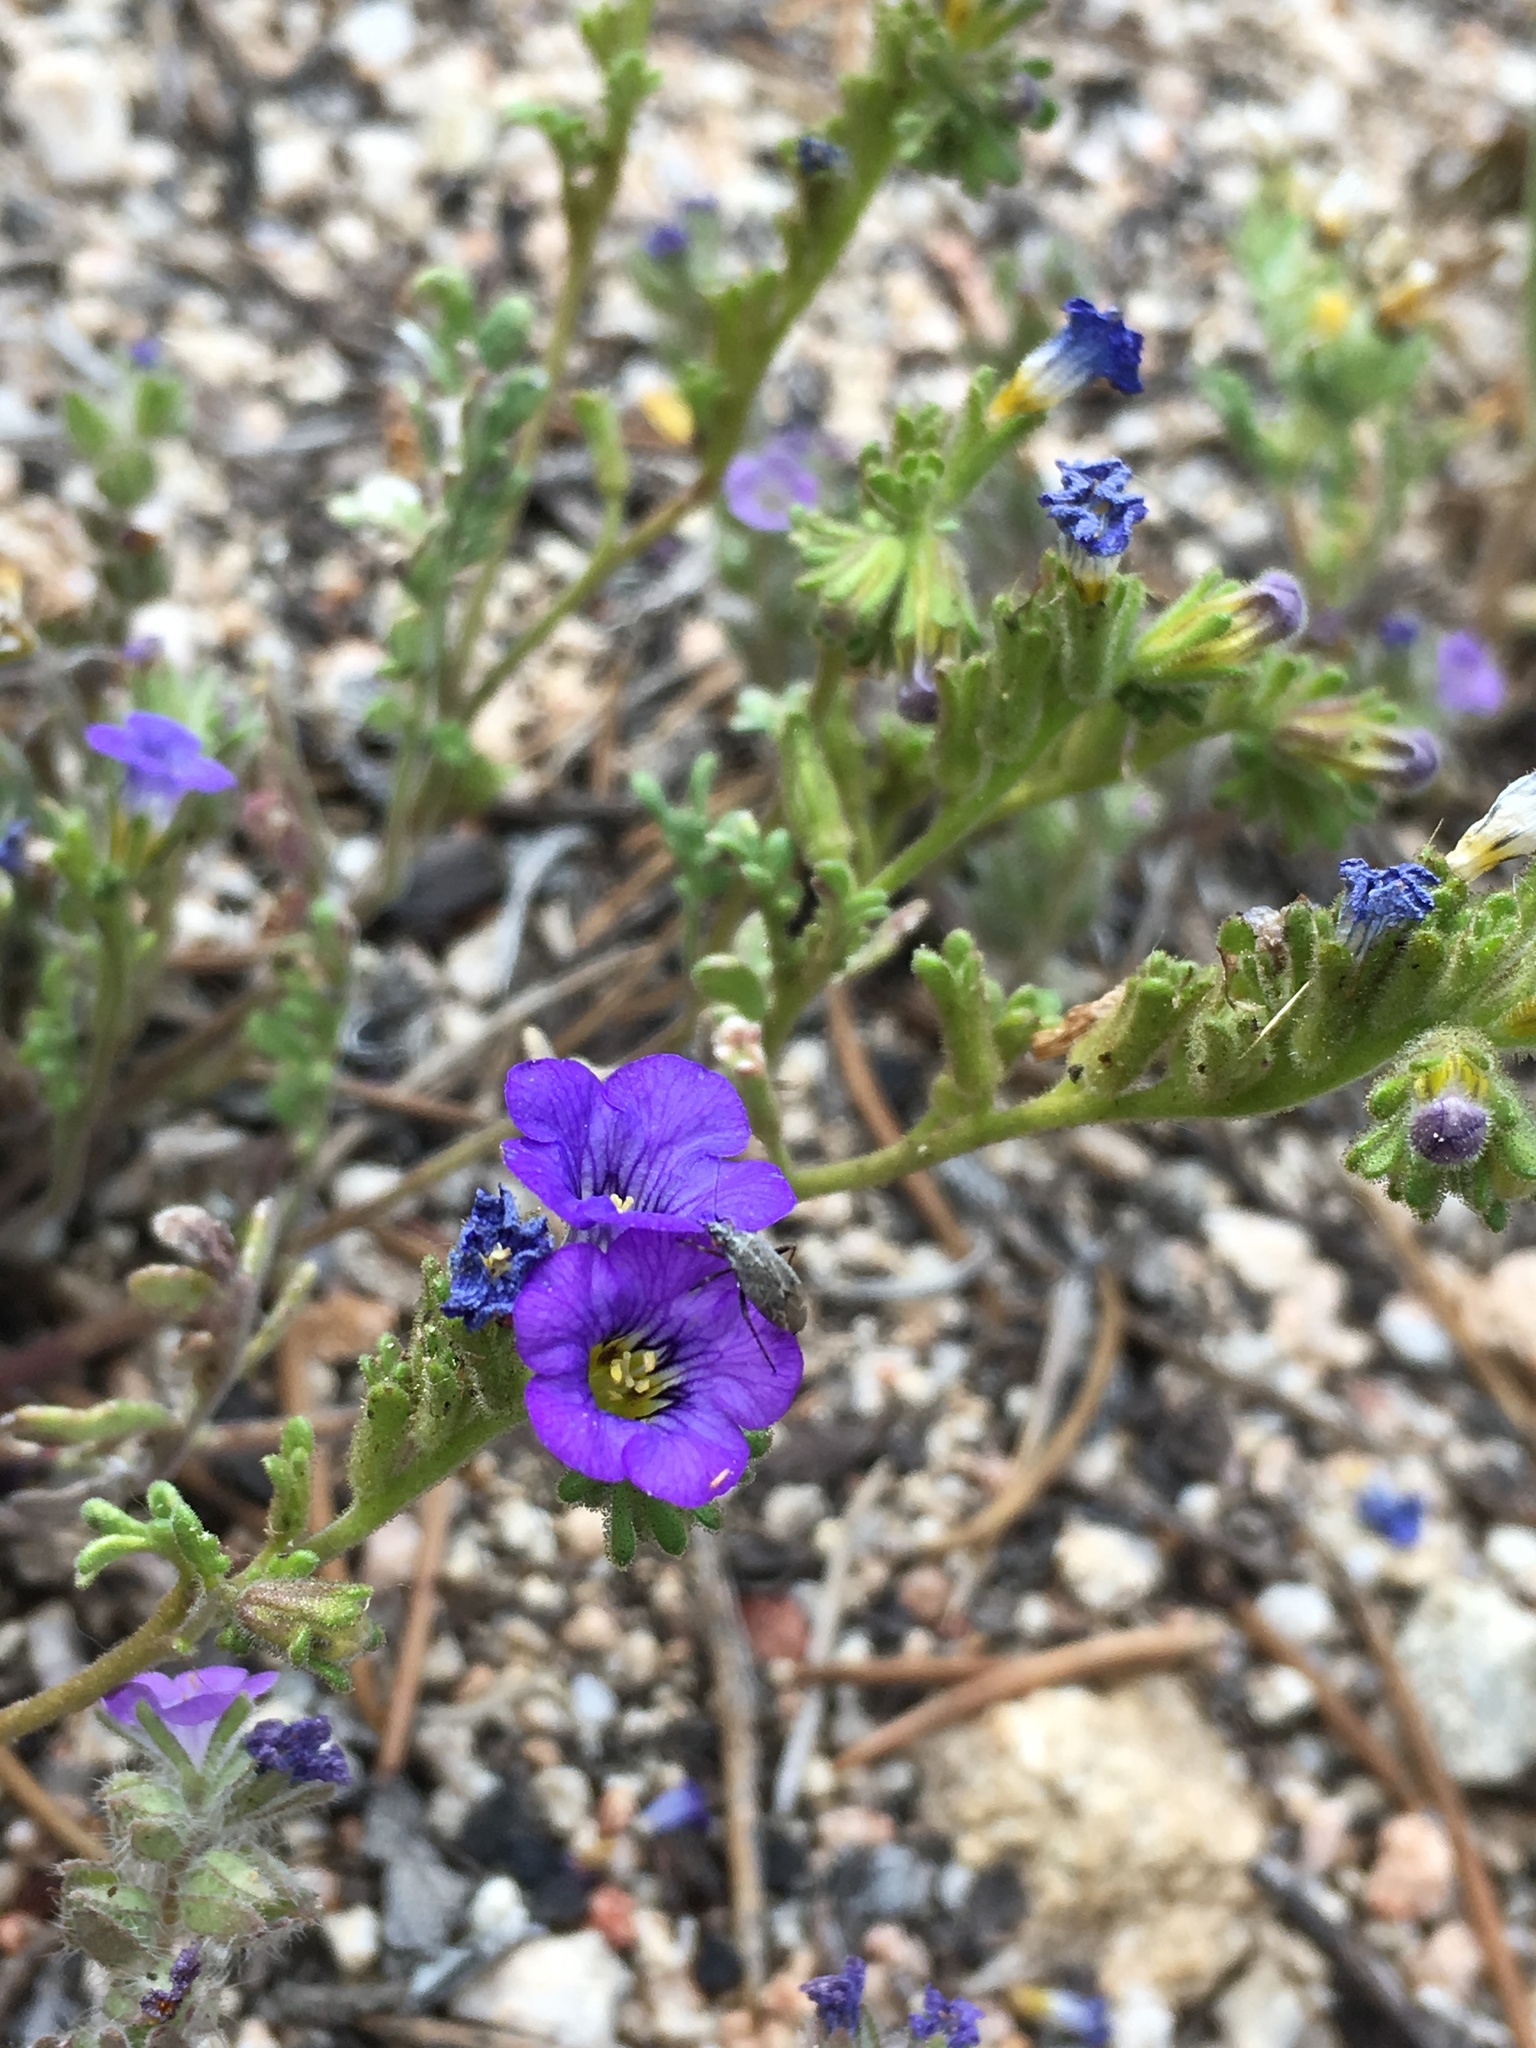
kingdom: Plantae
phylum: Tracheophyta
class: Magnoliopsida
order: Boraginales
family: Hydrophyllaceae
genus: Phacelia
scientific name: Phacelia fremontii
